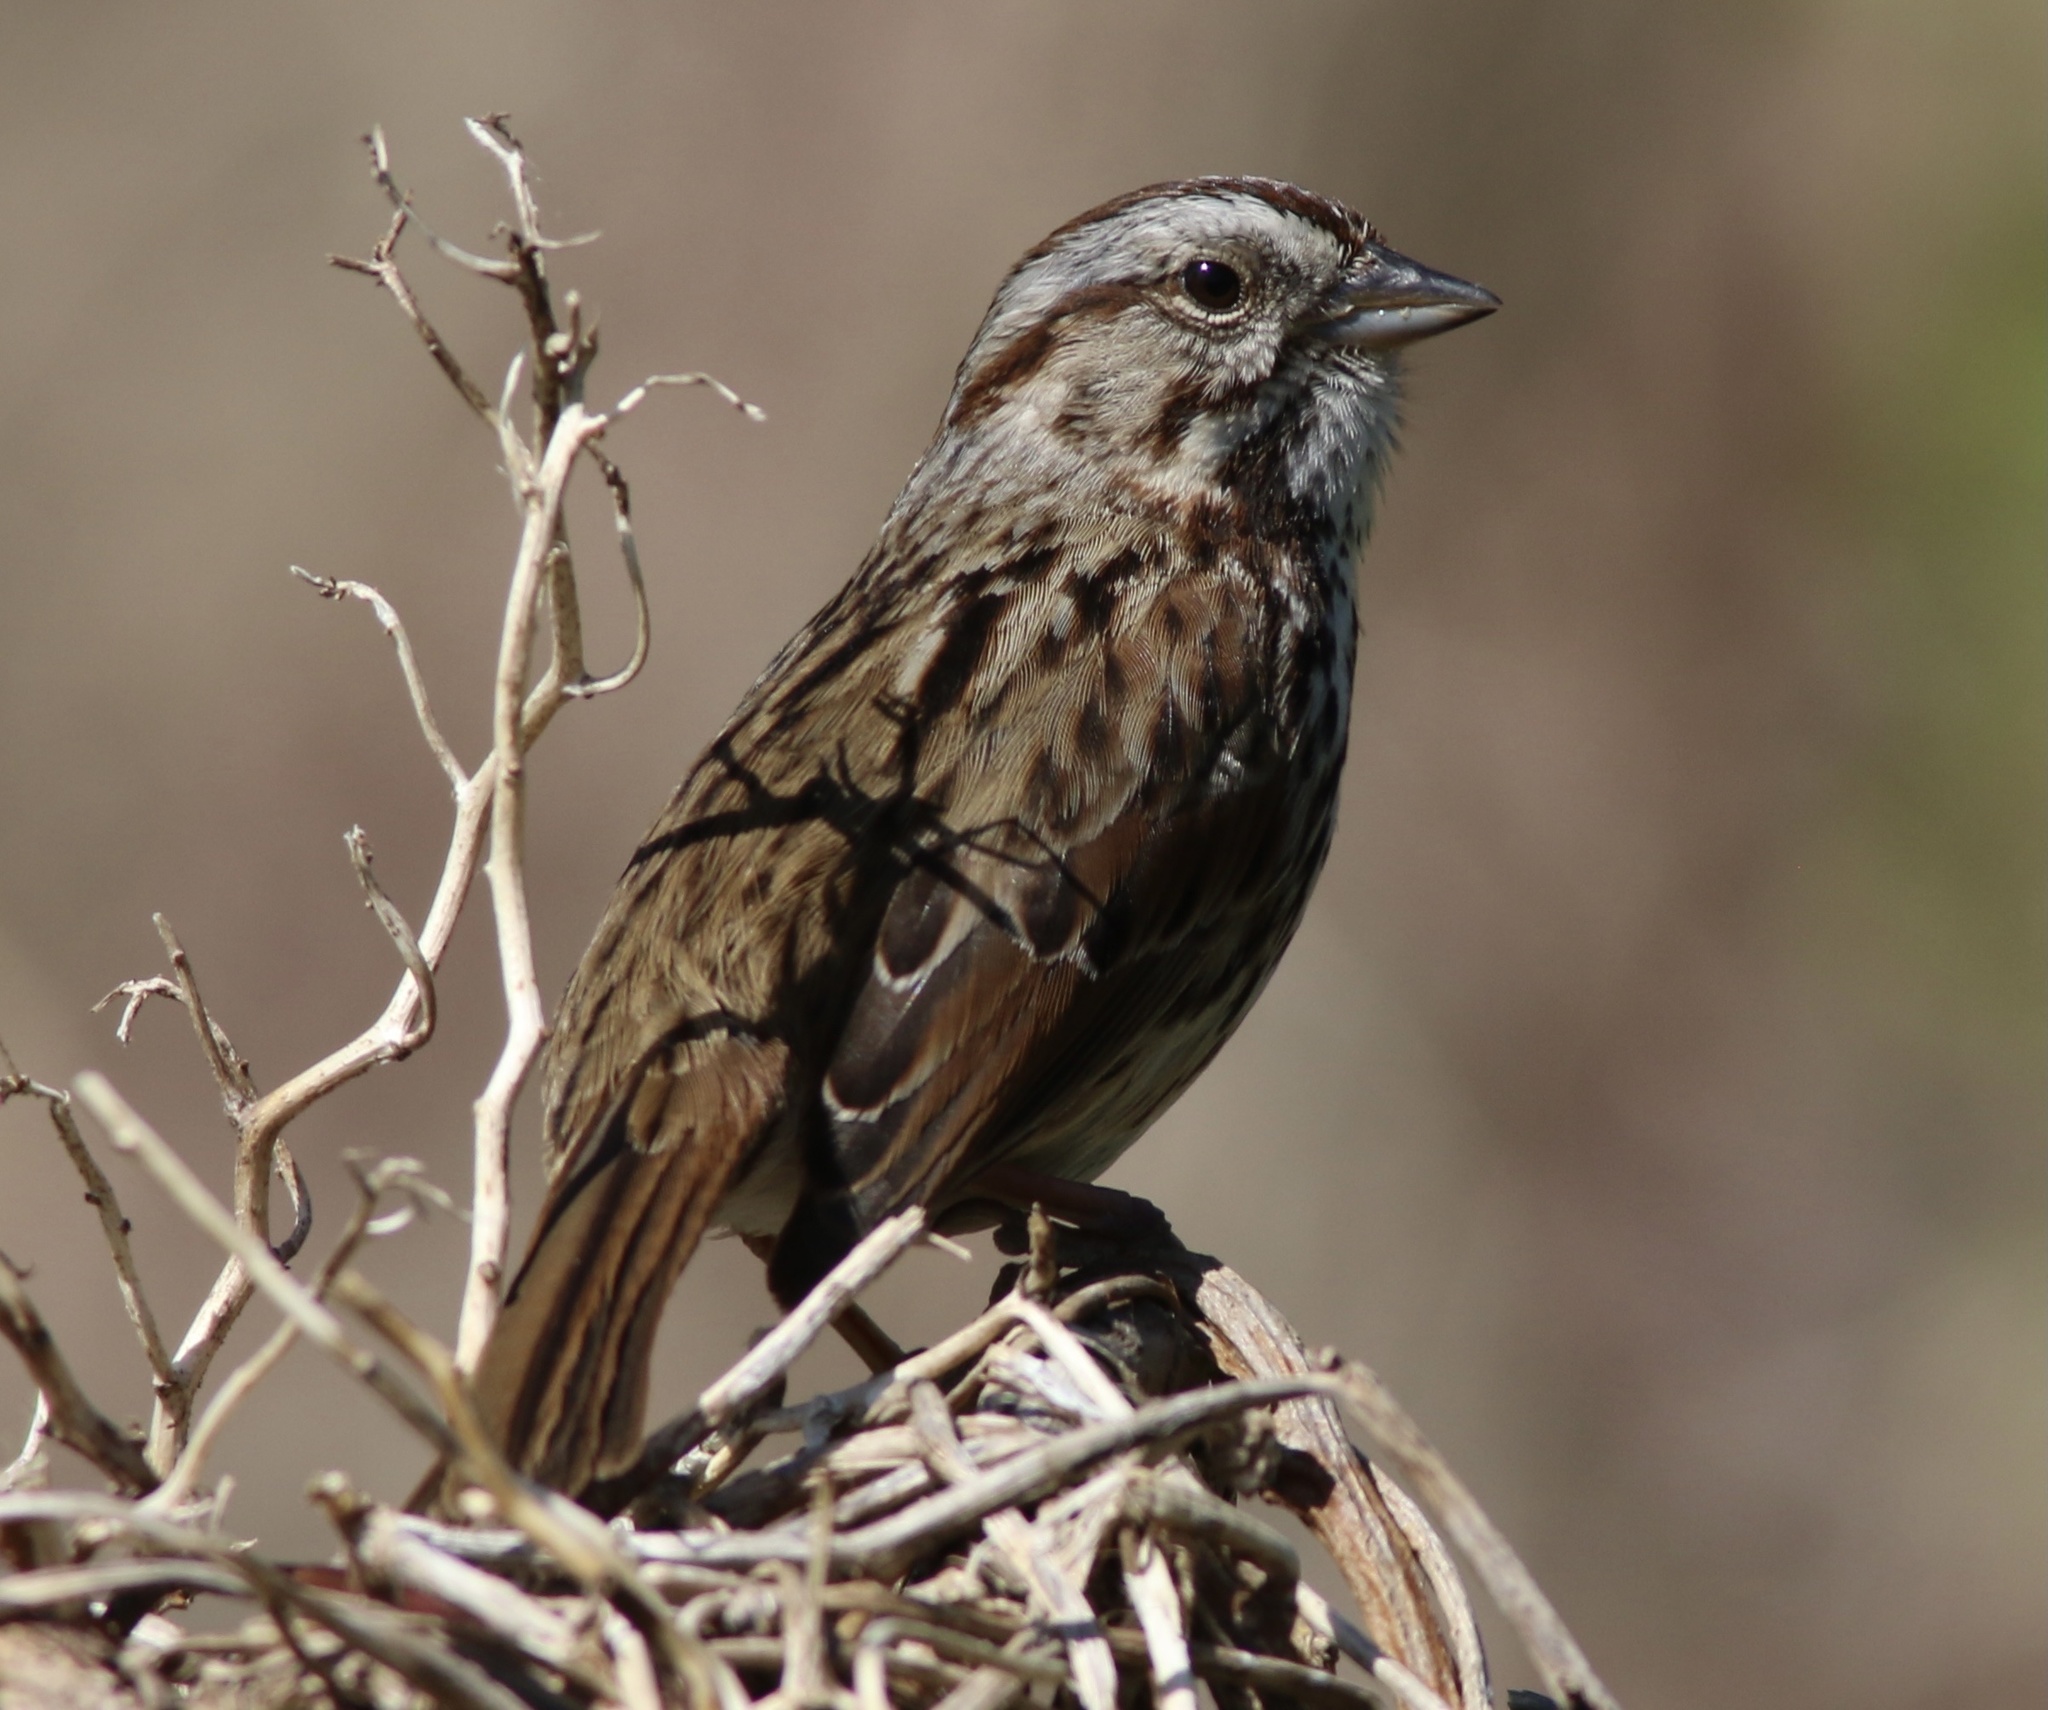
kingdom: Animalia
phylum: Chordata
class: Aves
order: Passeriformes
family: Passerellidae
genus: Melospiza
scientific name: Melospiza melodia
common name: Song sparrow
